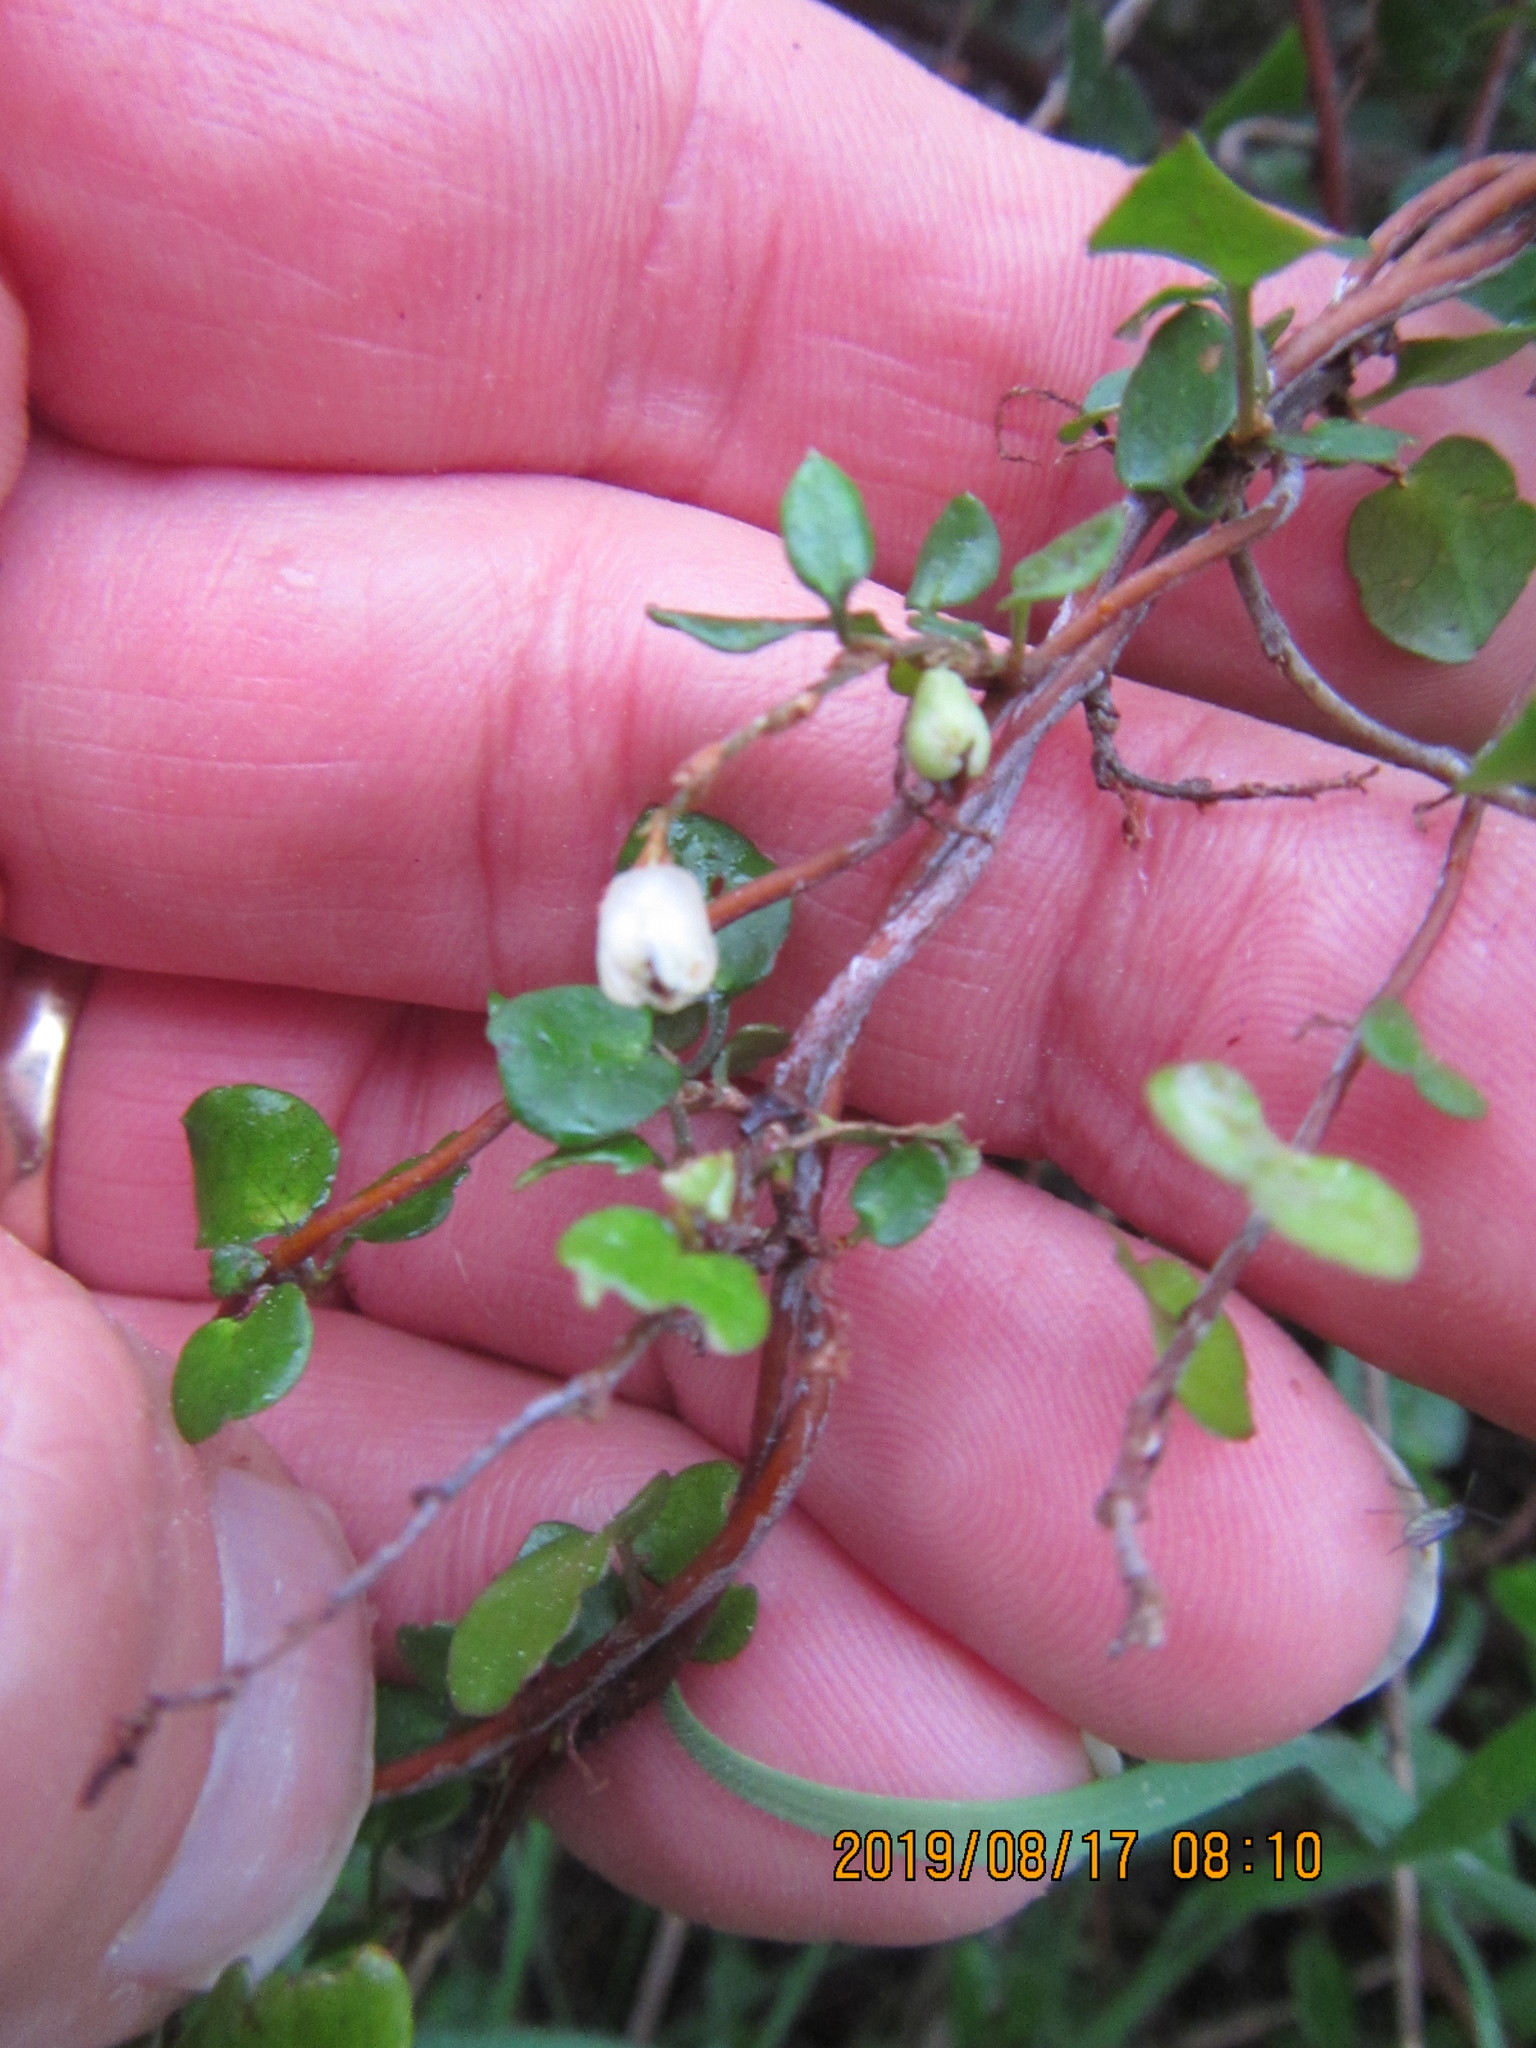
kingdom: Plantae
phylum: Tracheophyta
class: Magnoliopsida
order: Caryophyllales
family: Polygonaceae
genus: Muehlenbeckia
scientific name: Muehlenbeckia complexa
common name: Wireplant
